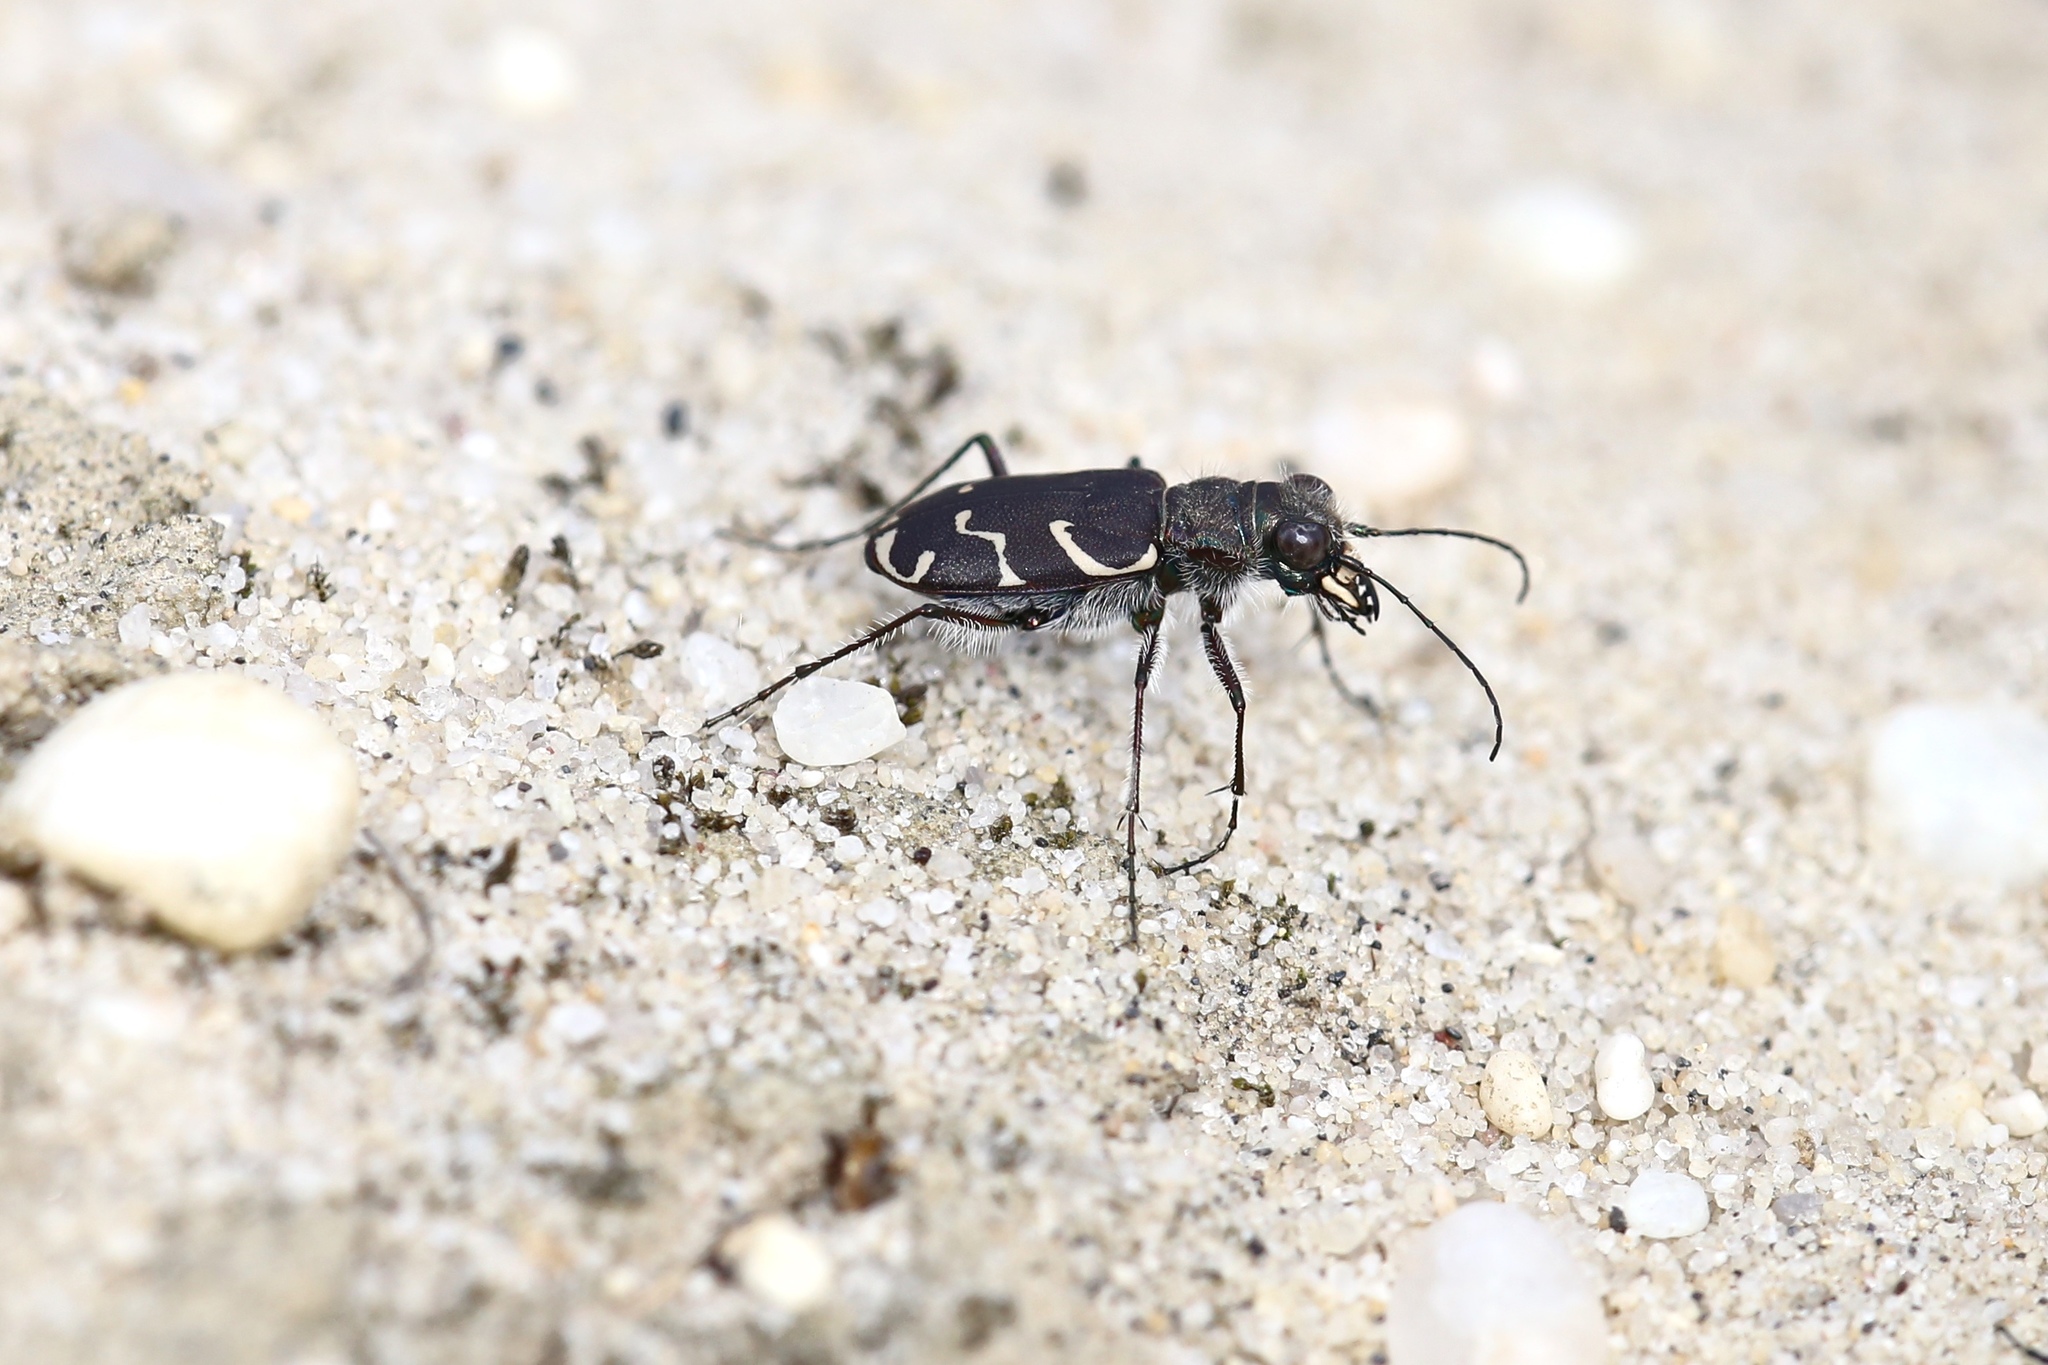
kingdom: Animalia
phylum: Arthropoda
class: Insecta
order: Coleoptera
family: Carabidae
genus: Cicindela
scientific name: Cicindela tranquebarica
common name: Oblique-lined tiger beetle
